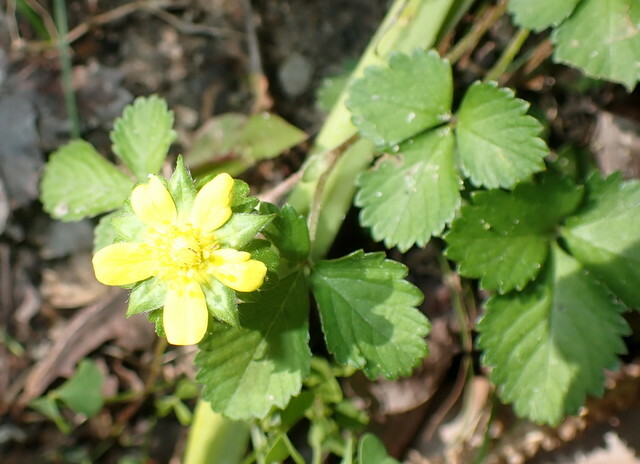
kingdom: Plantae
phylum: Tracheophyta
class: Magnoliopsida
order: Rosales
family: Rosaceae
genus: Potentilla
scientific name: Potentilla indica
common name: Yellow-flowered strawberry
